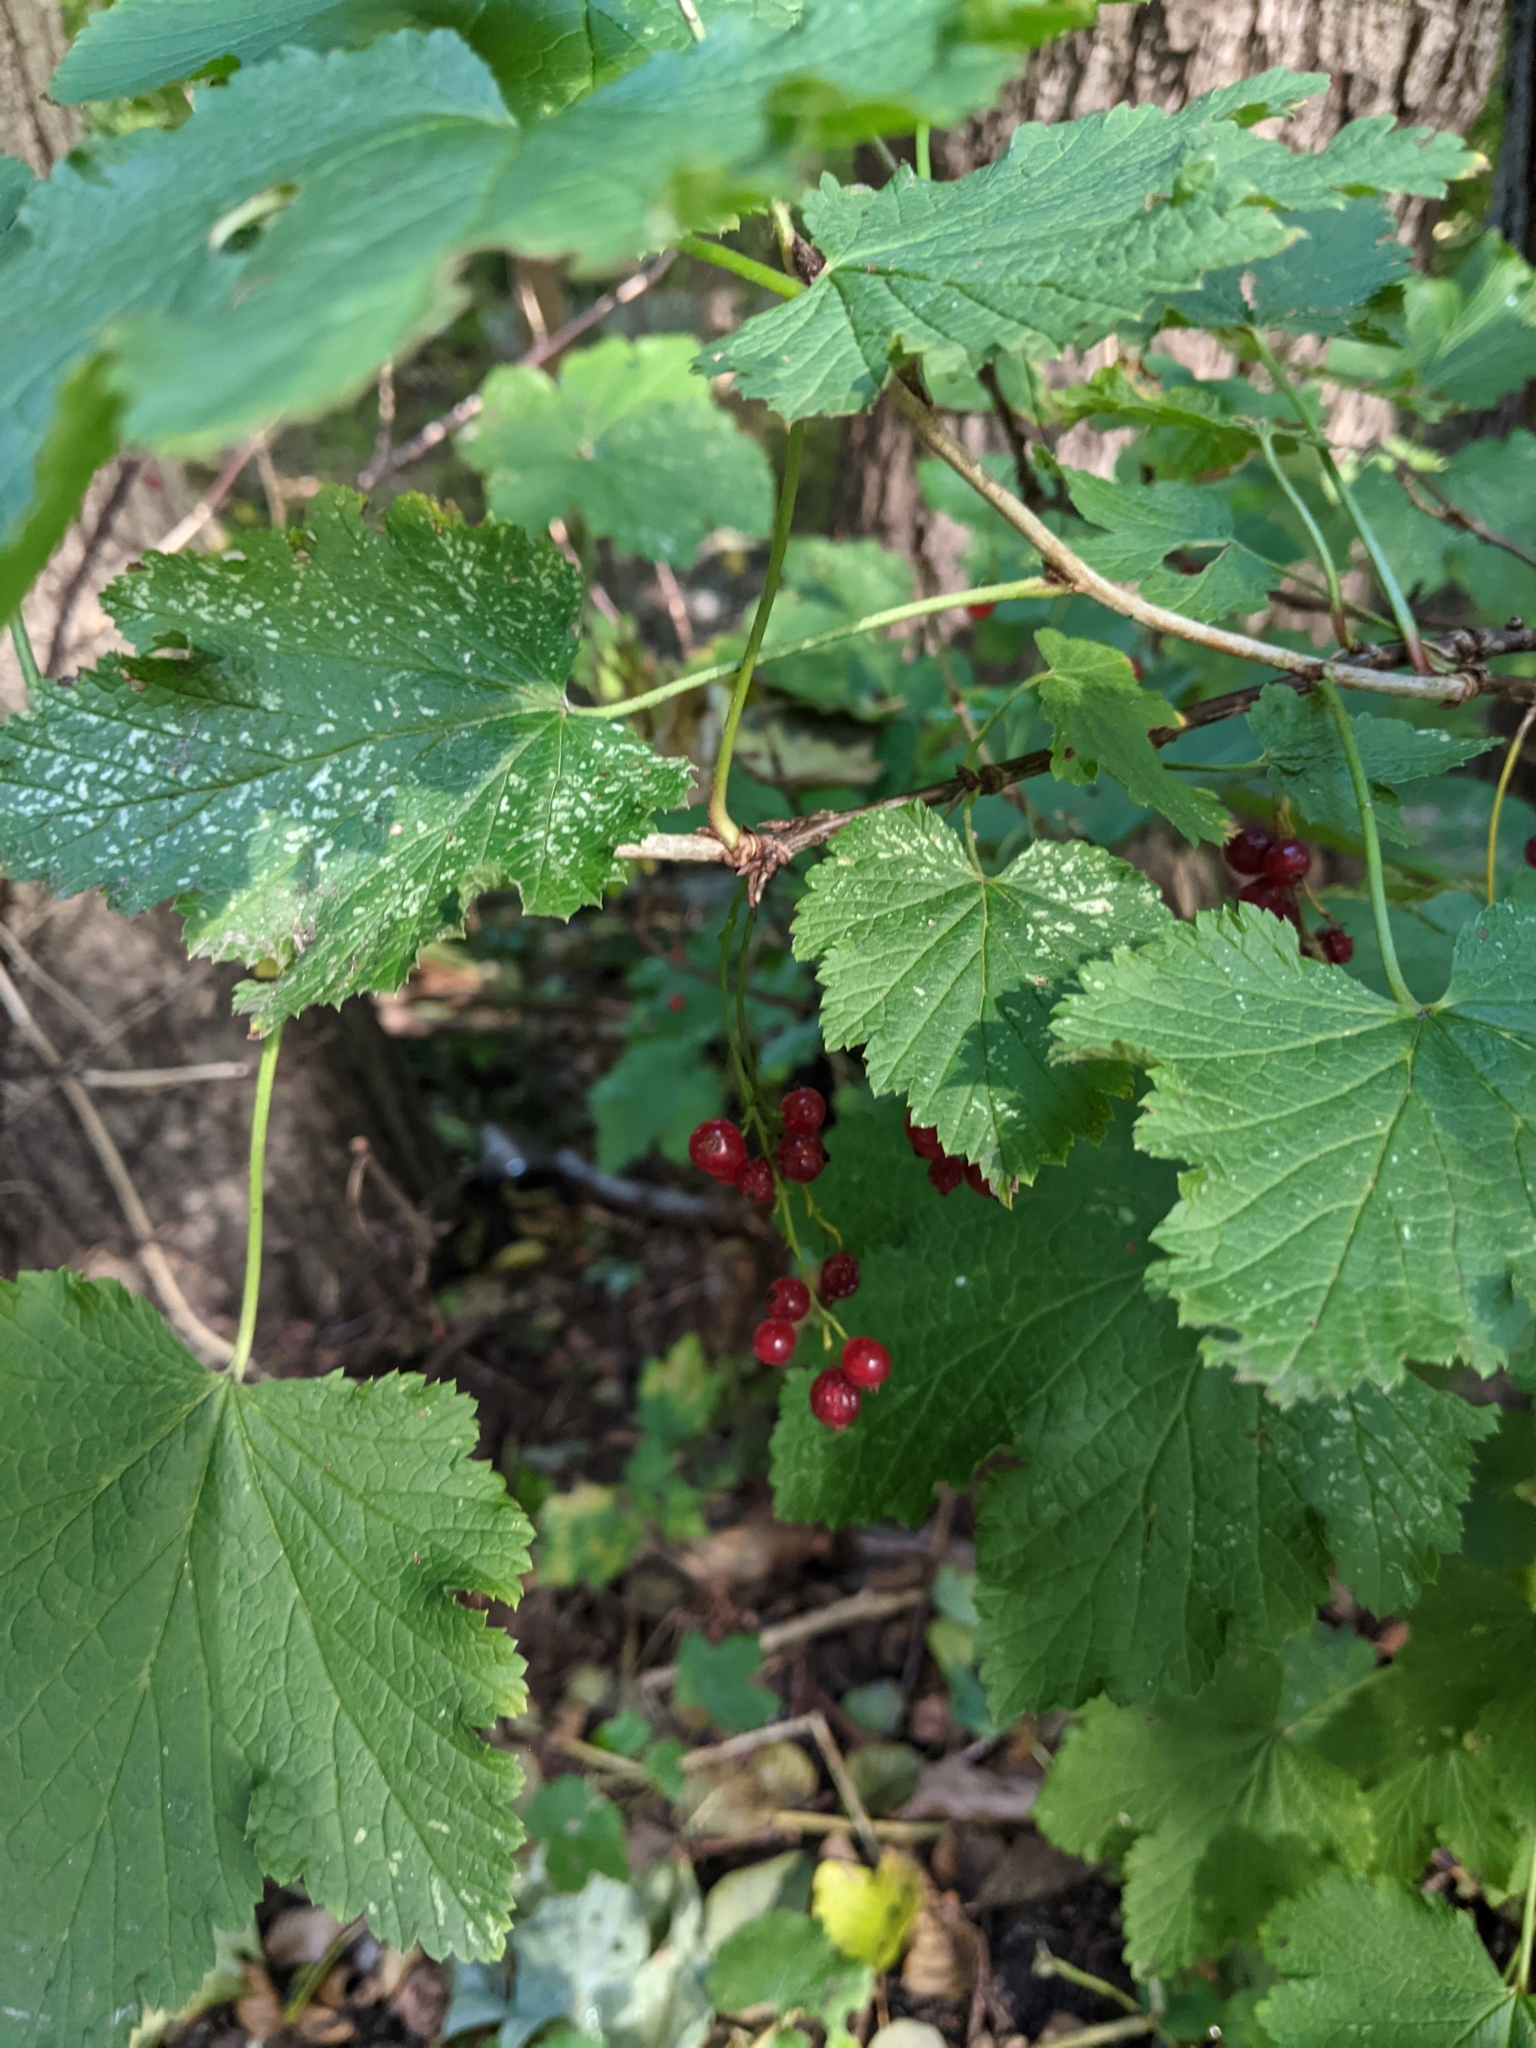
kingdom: Plantae
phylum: Tracheophyta
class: Magnoliopsida
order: Saxifragales
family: Grossulariaceae
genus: Ribes
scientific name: Ribes rubrum
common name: Red currant
